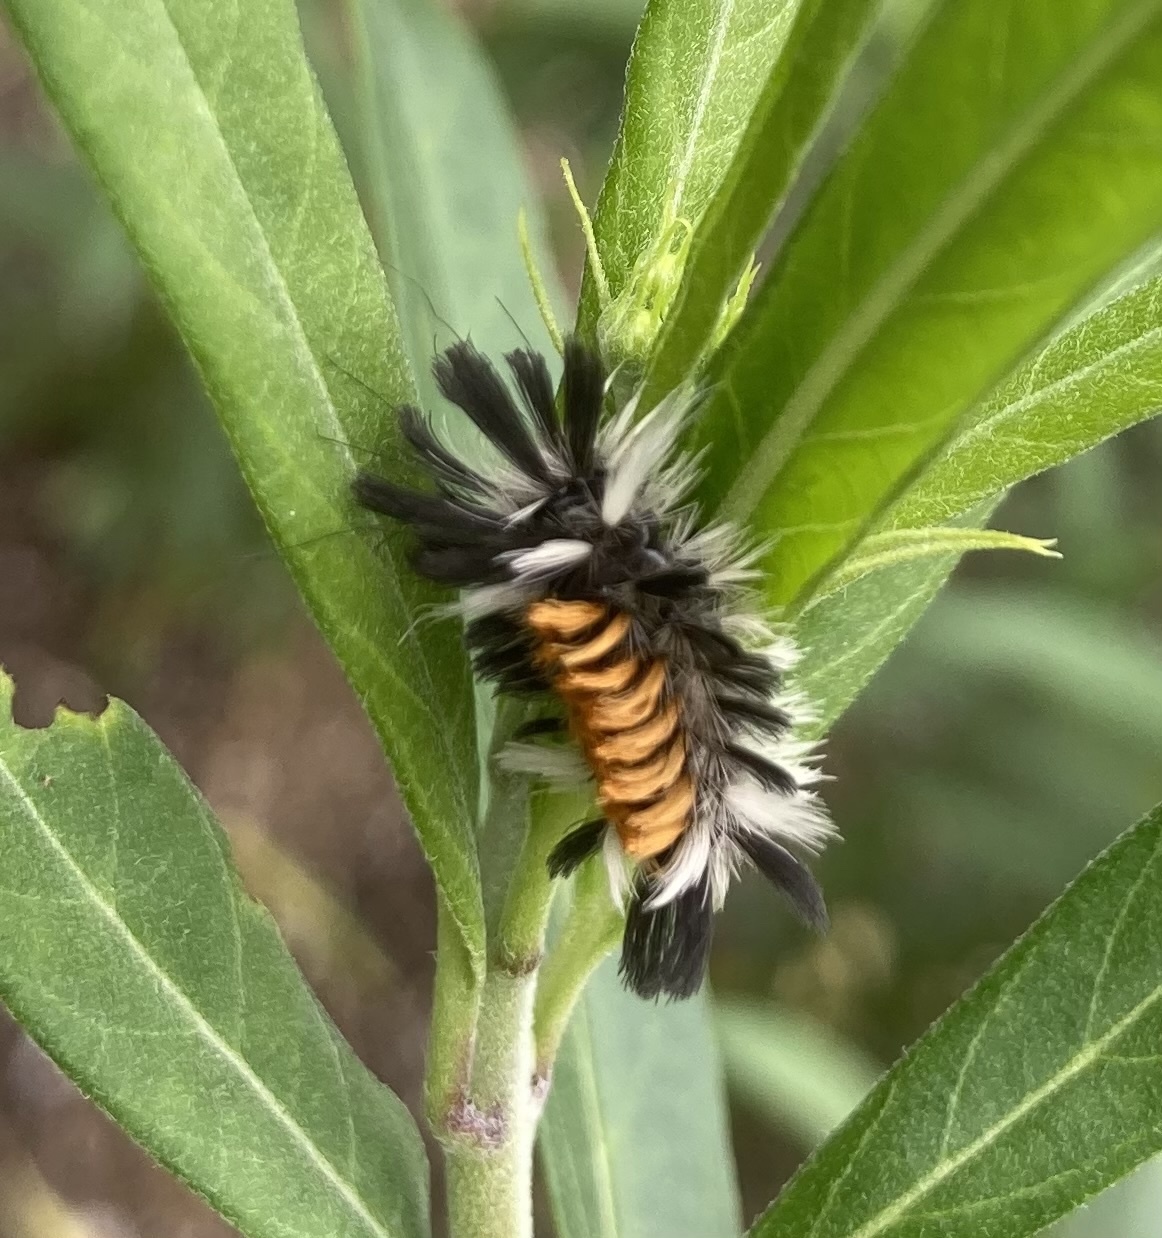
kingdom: Animalia
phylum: Arthropoda
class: Insecta
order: Lepidoptera
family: Erebidae
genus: Euchaetes
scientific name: Euchaetes egle
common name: Milkweed tussock moth
